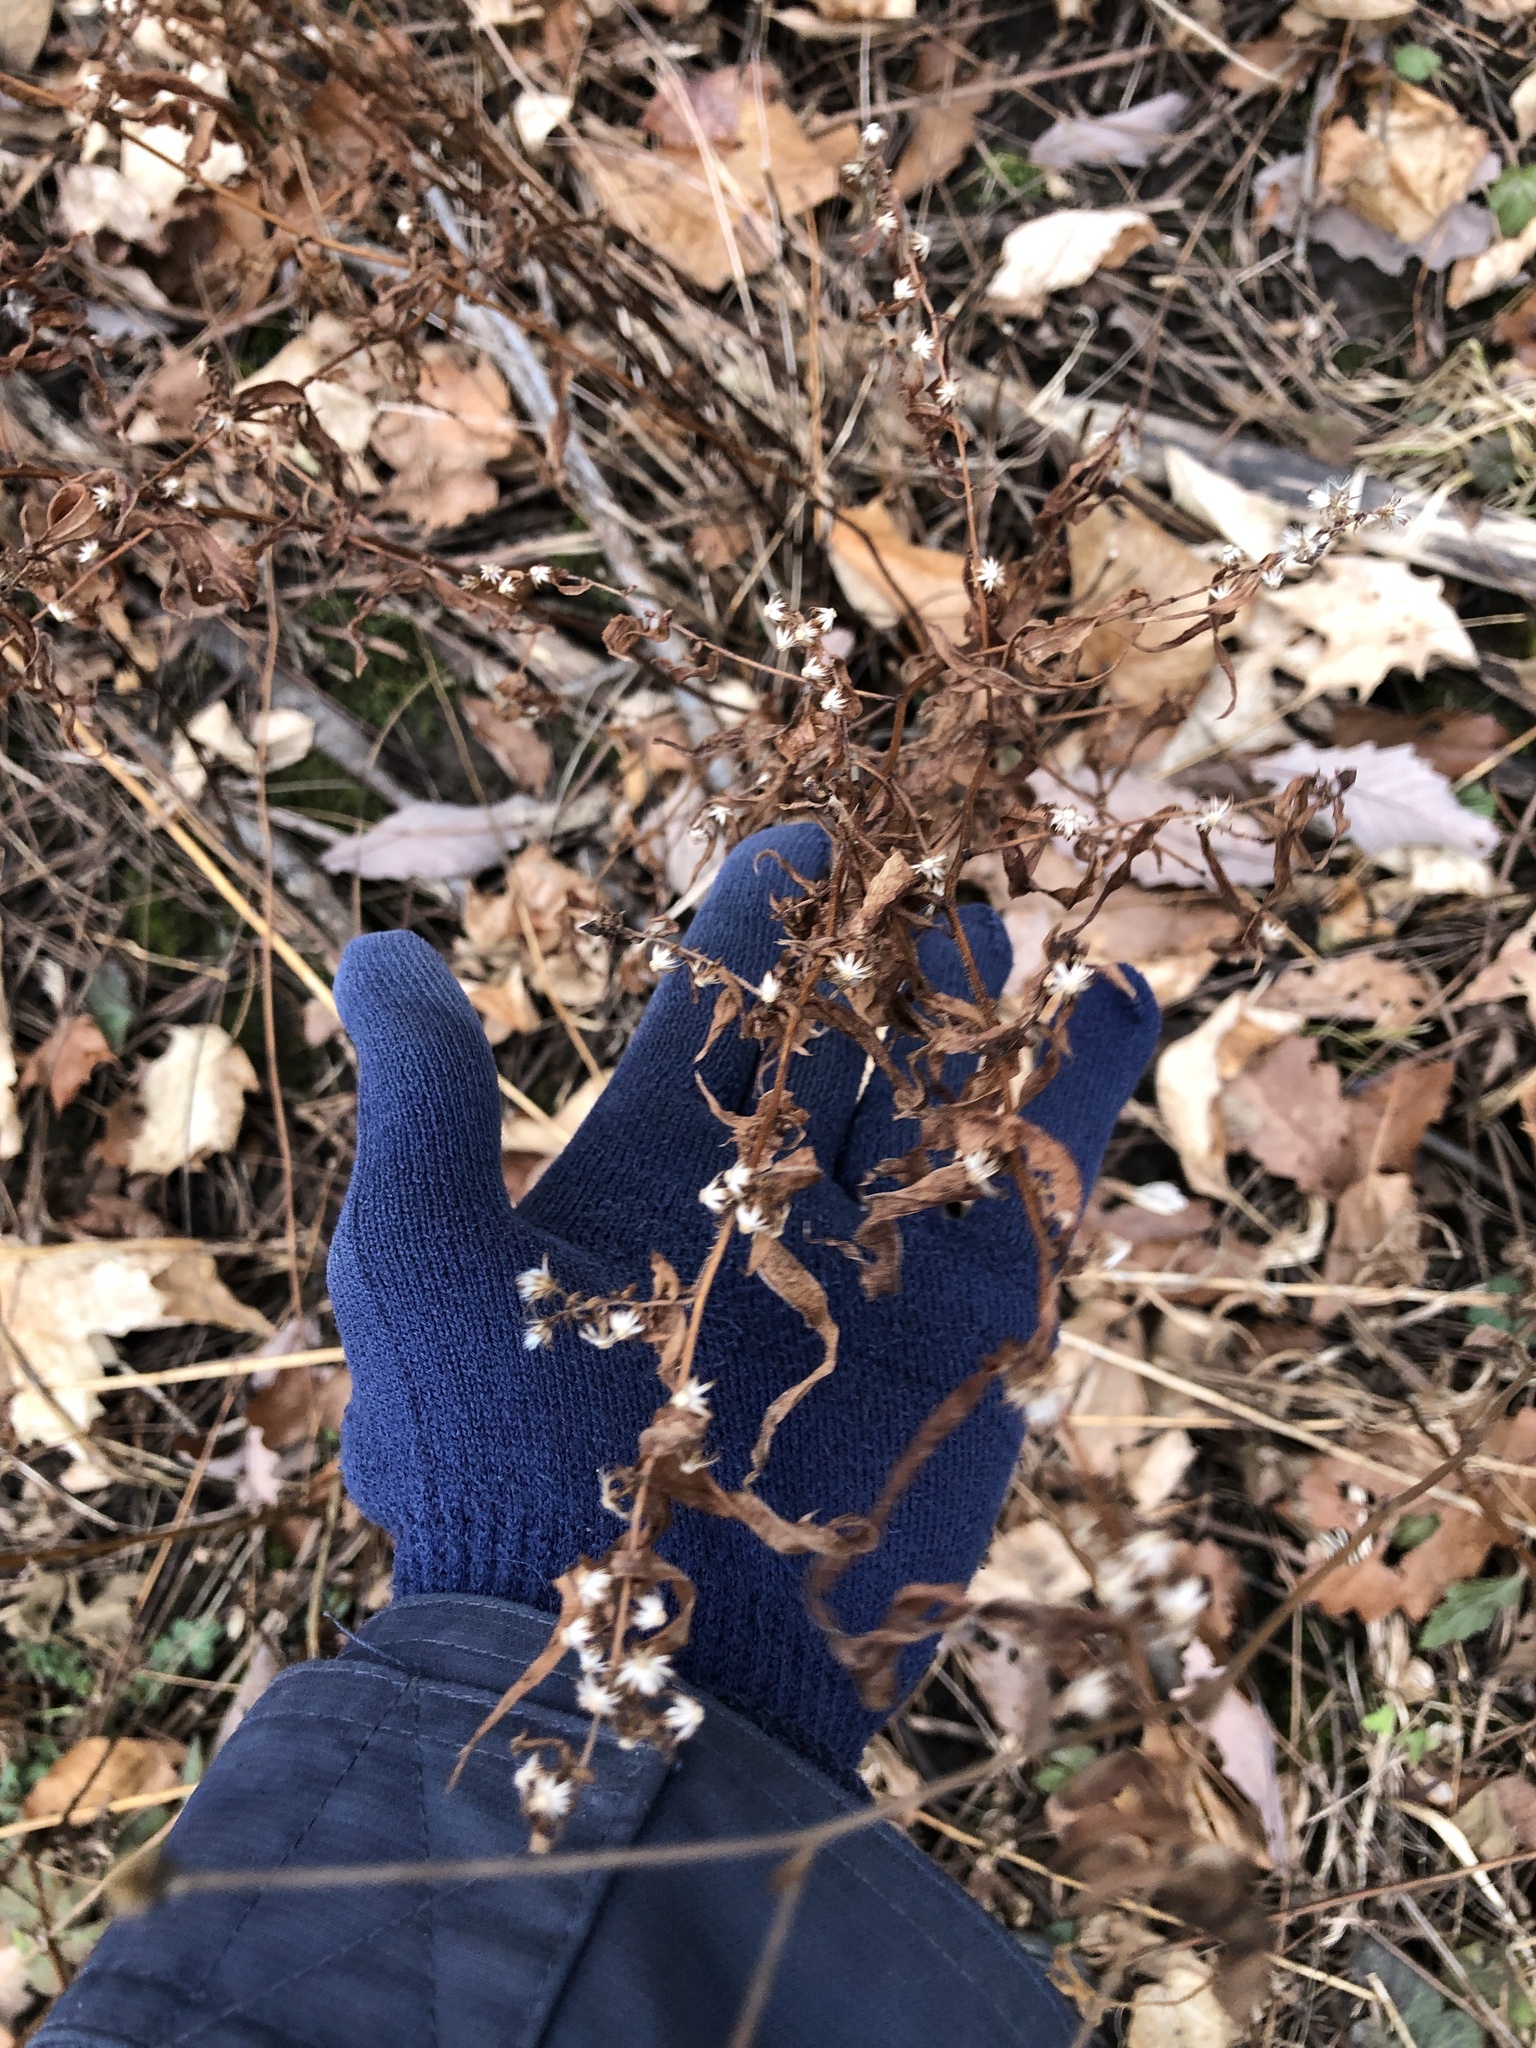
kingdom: Plantae
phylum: Tracheophyta
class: Magnoliopsida
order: Asterales
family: Asteraceae
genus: Solidago
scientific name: Solidago caesia
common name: Woodland goldenrod
